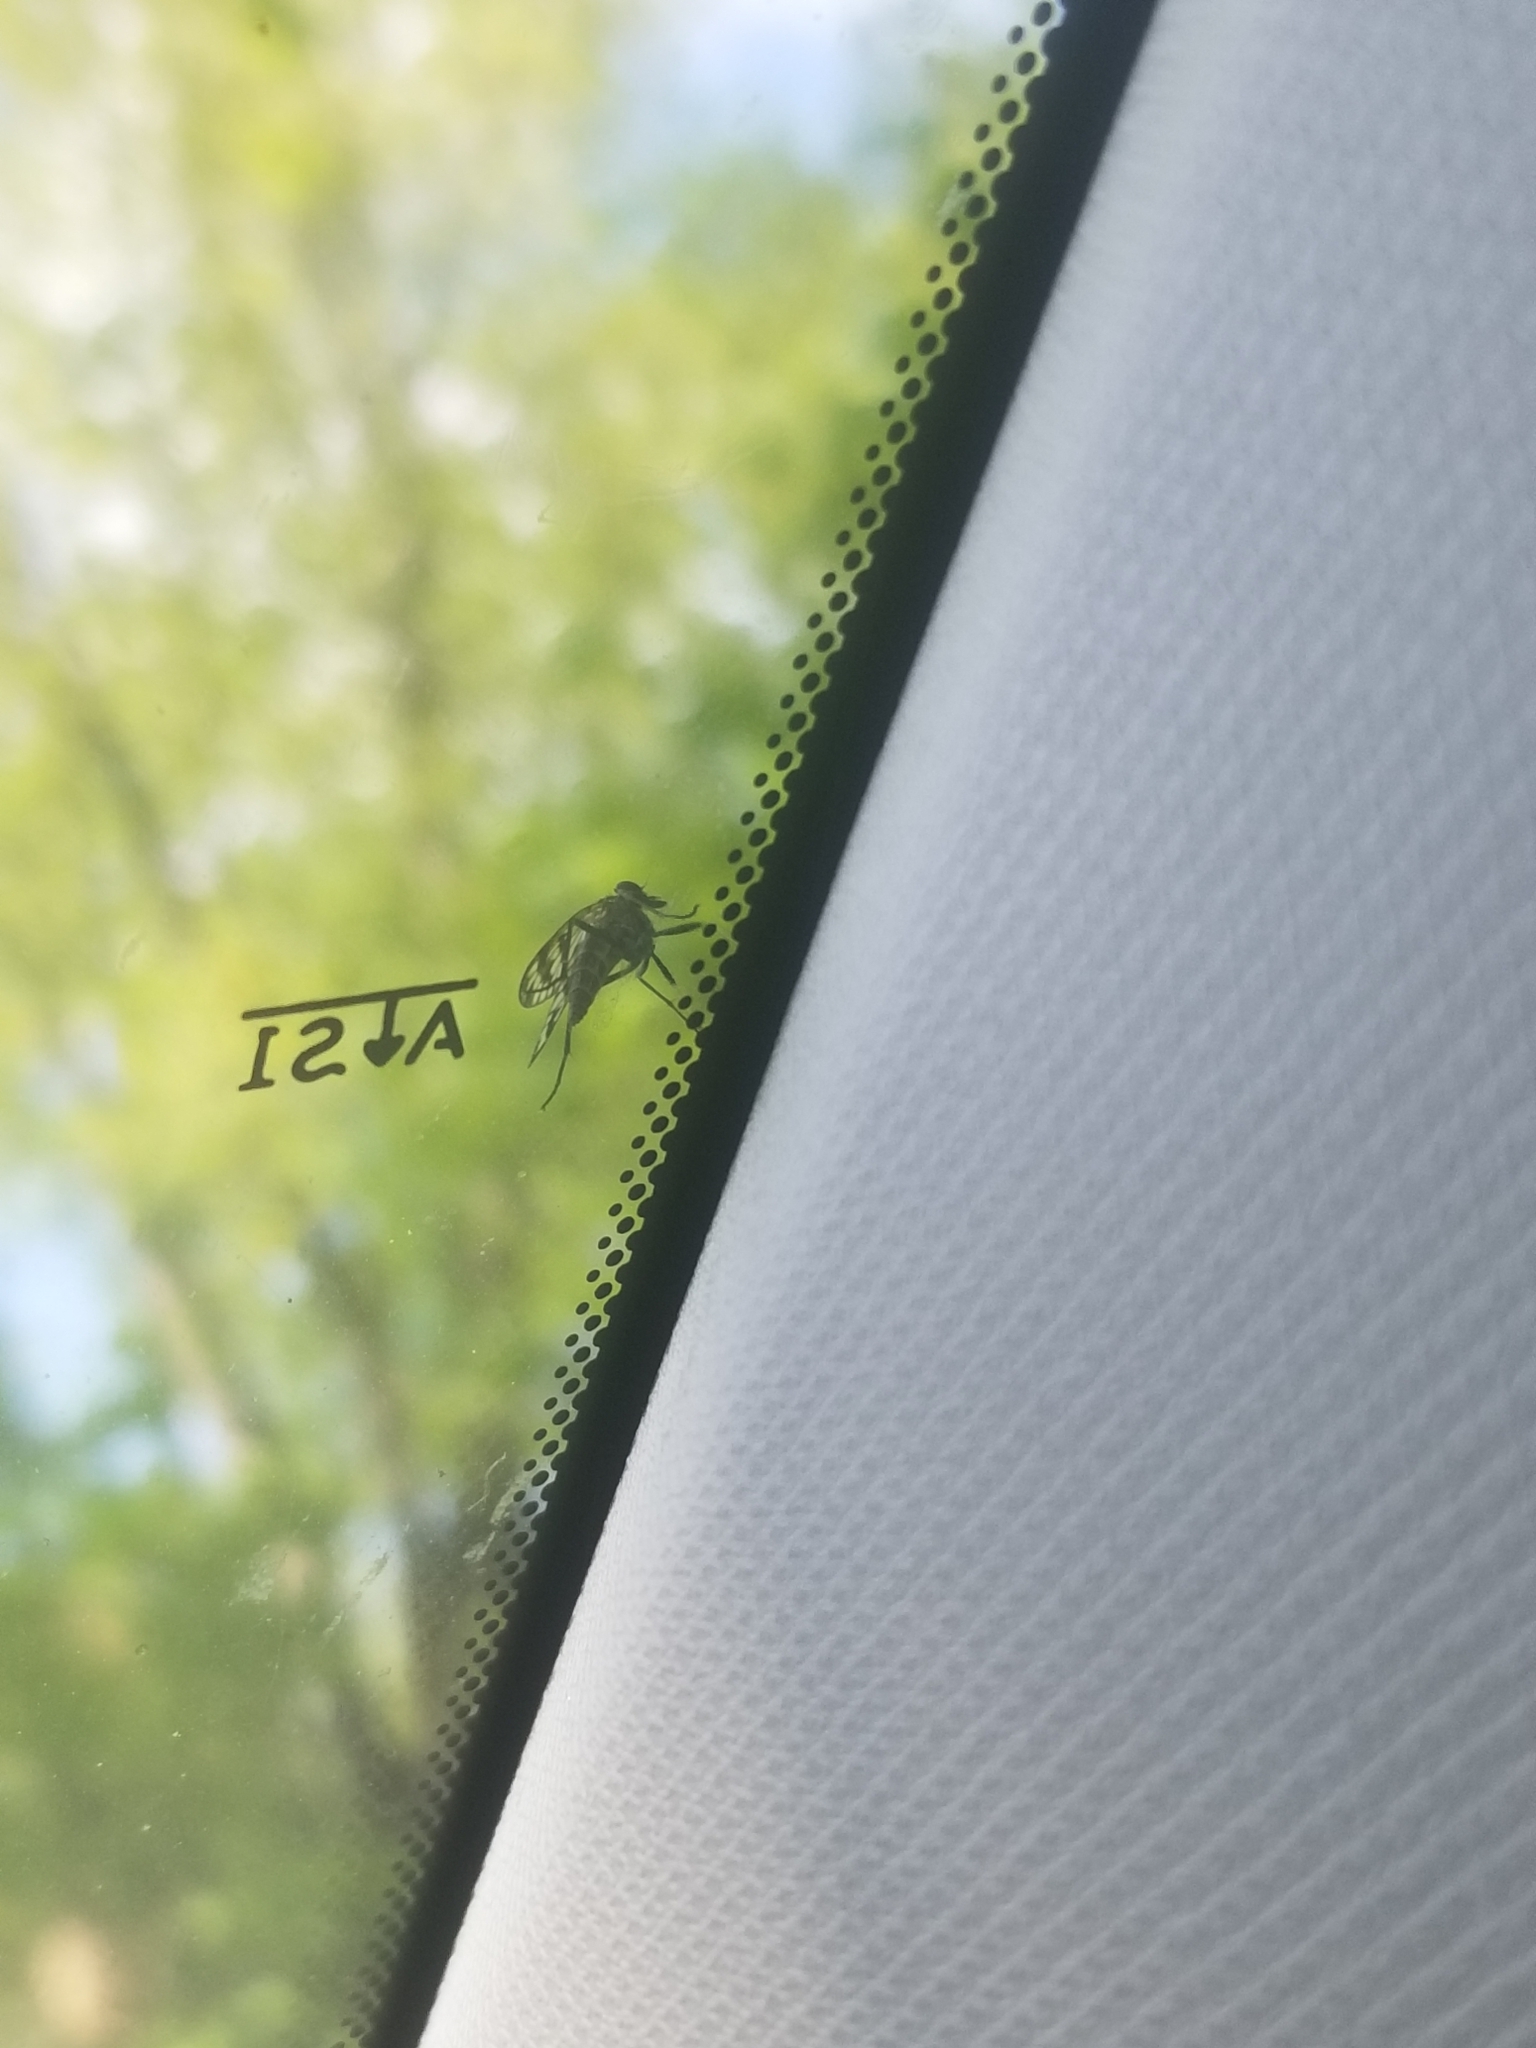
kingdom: Animalia
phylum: Arthropoda
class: Insecta
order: Diptera
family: Rhagionidae
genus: Rhagio
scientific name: Rhagio mystaceus
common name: Common snipe fly
